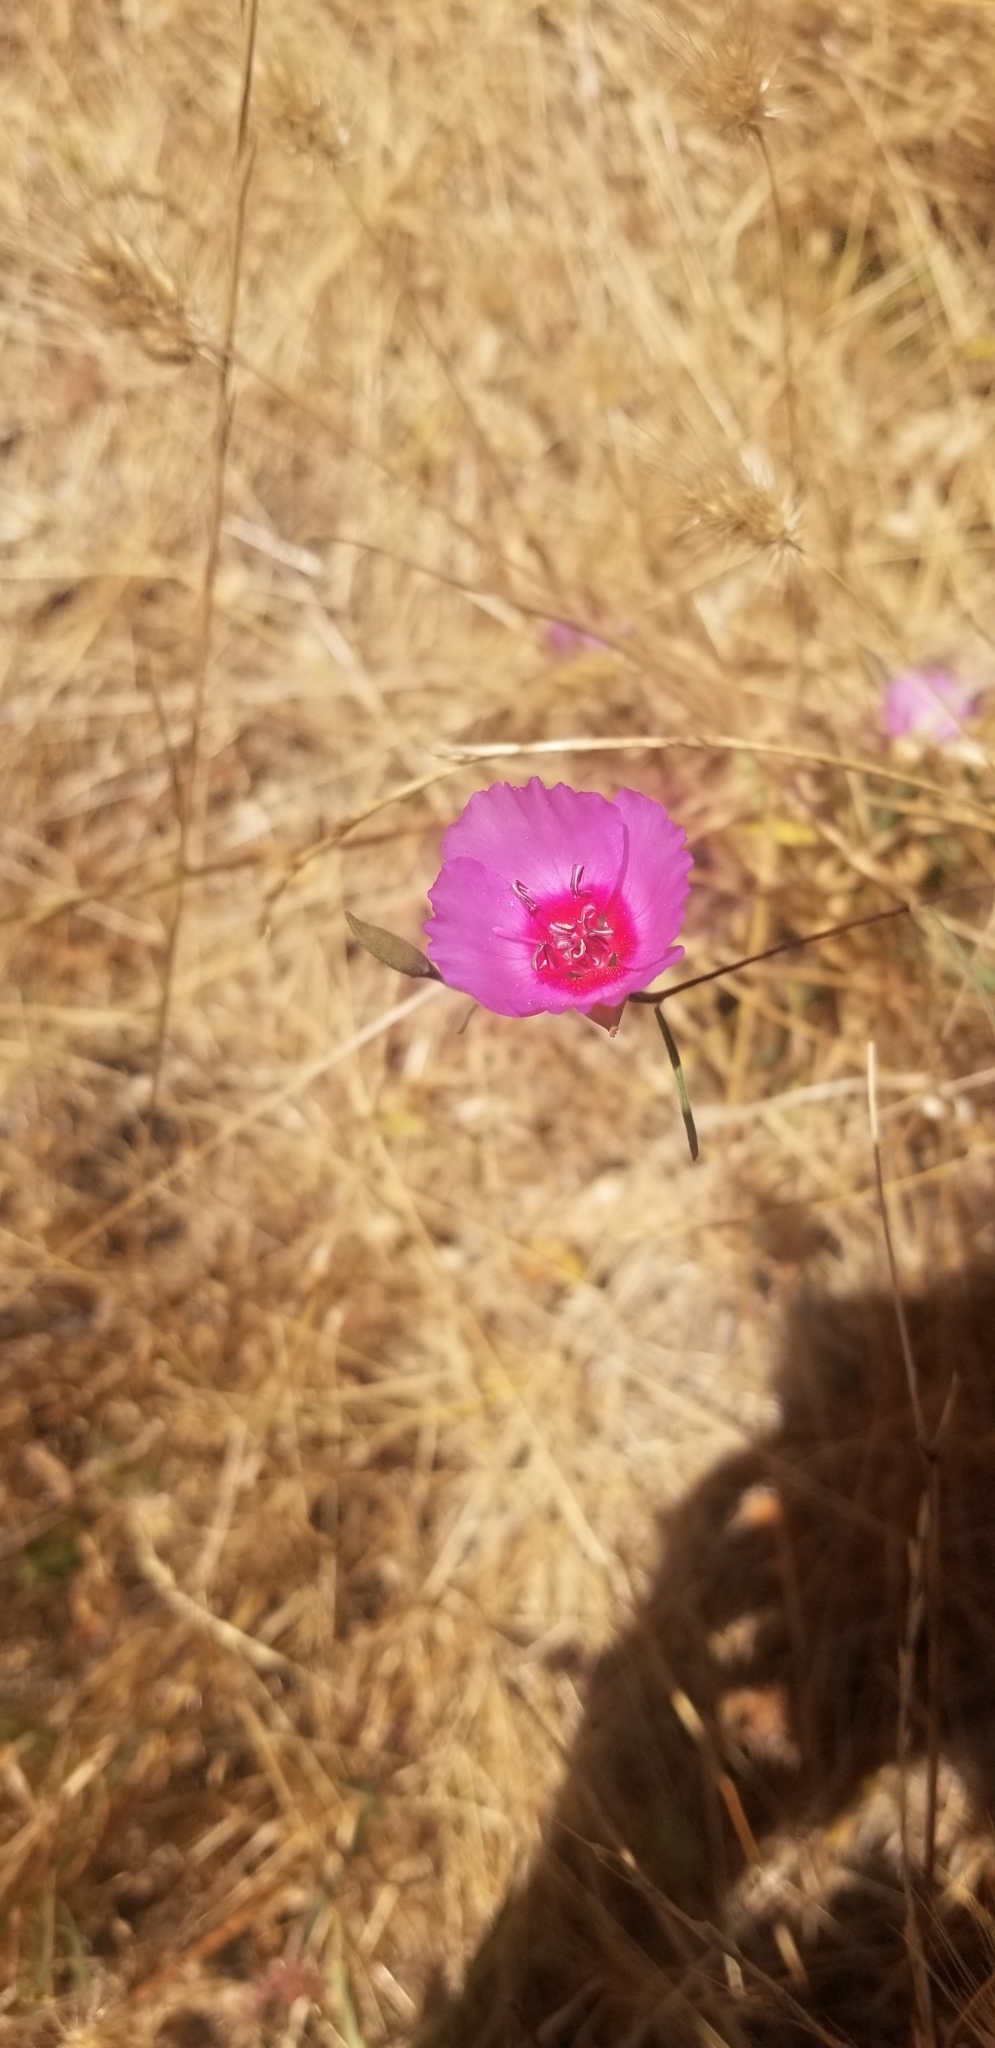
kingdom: Plantae
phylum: Tracheophyta
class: Magnoliopsida
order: Myrtales
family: Onagraceae
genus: Clarkia
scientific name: Clarkia rubicunda
